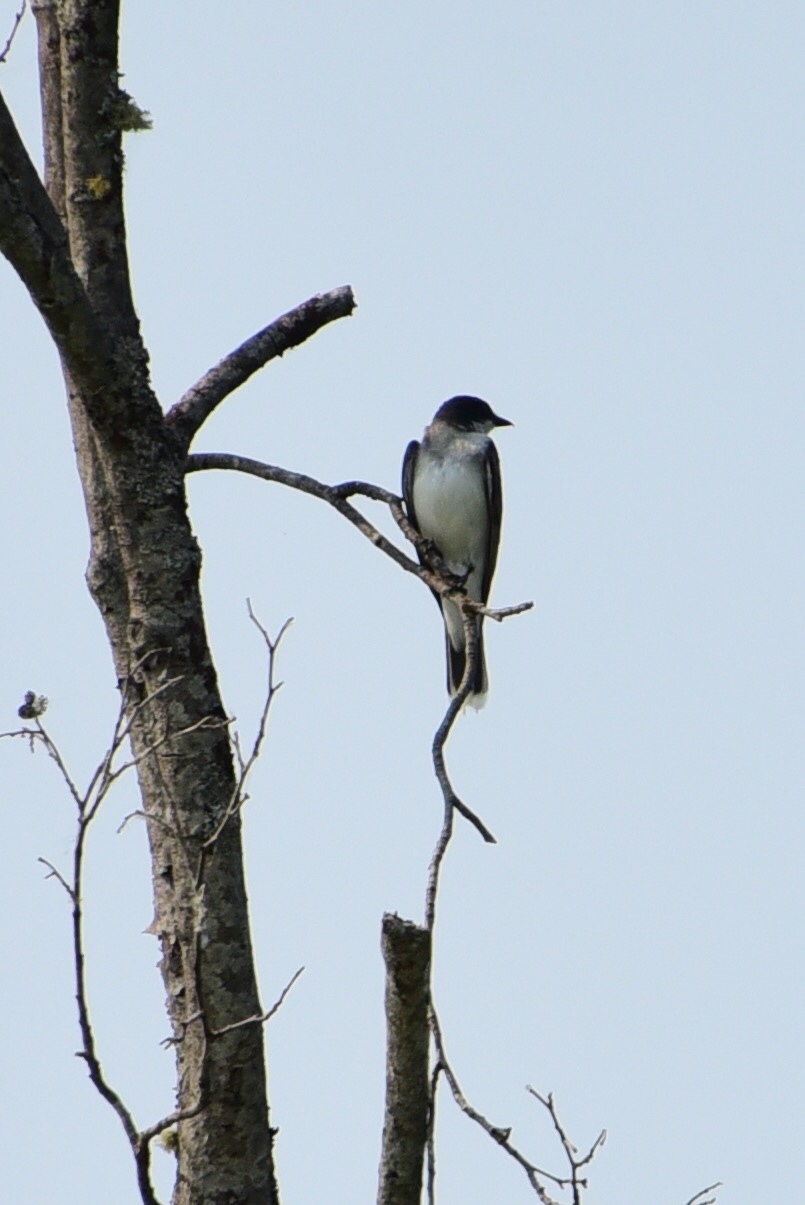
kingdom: Animalia
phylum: Chordata
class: Aves
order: Passeriformes
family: Tyrannidae
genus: Tyrannus
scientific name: Tyrannus tyrannus
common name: Eastern kingbird
